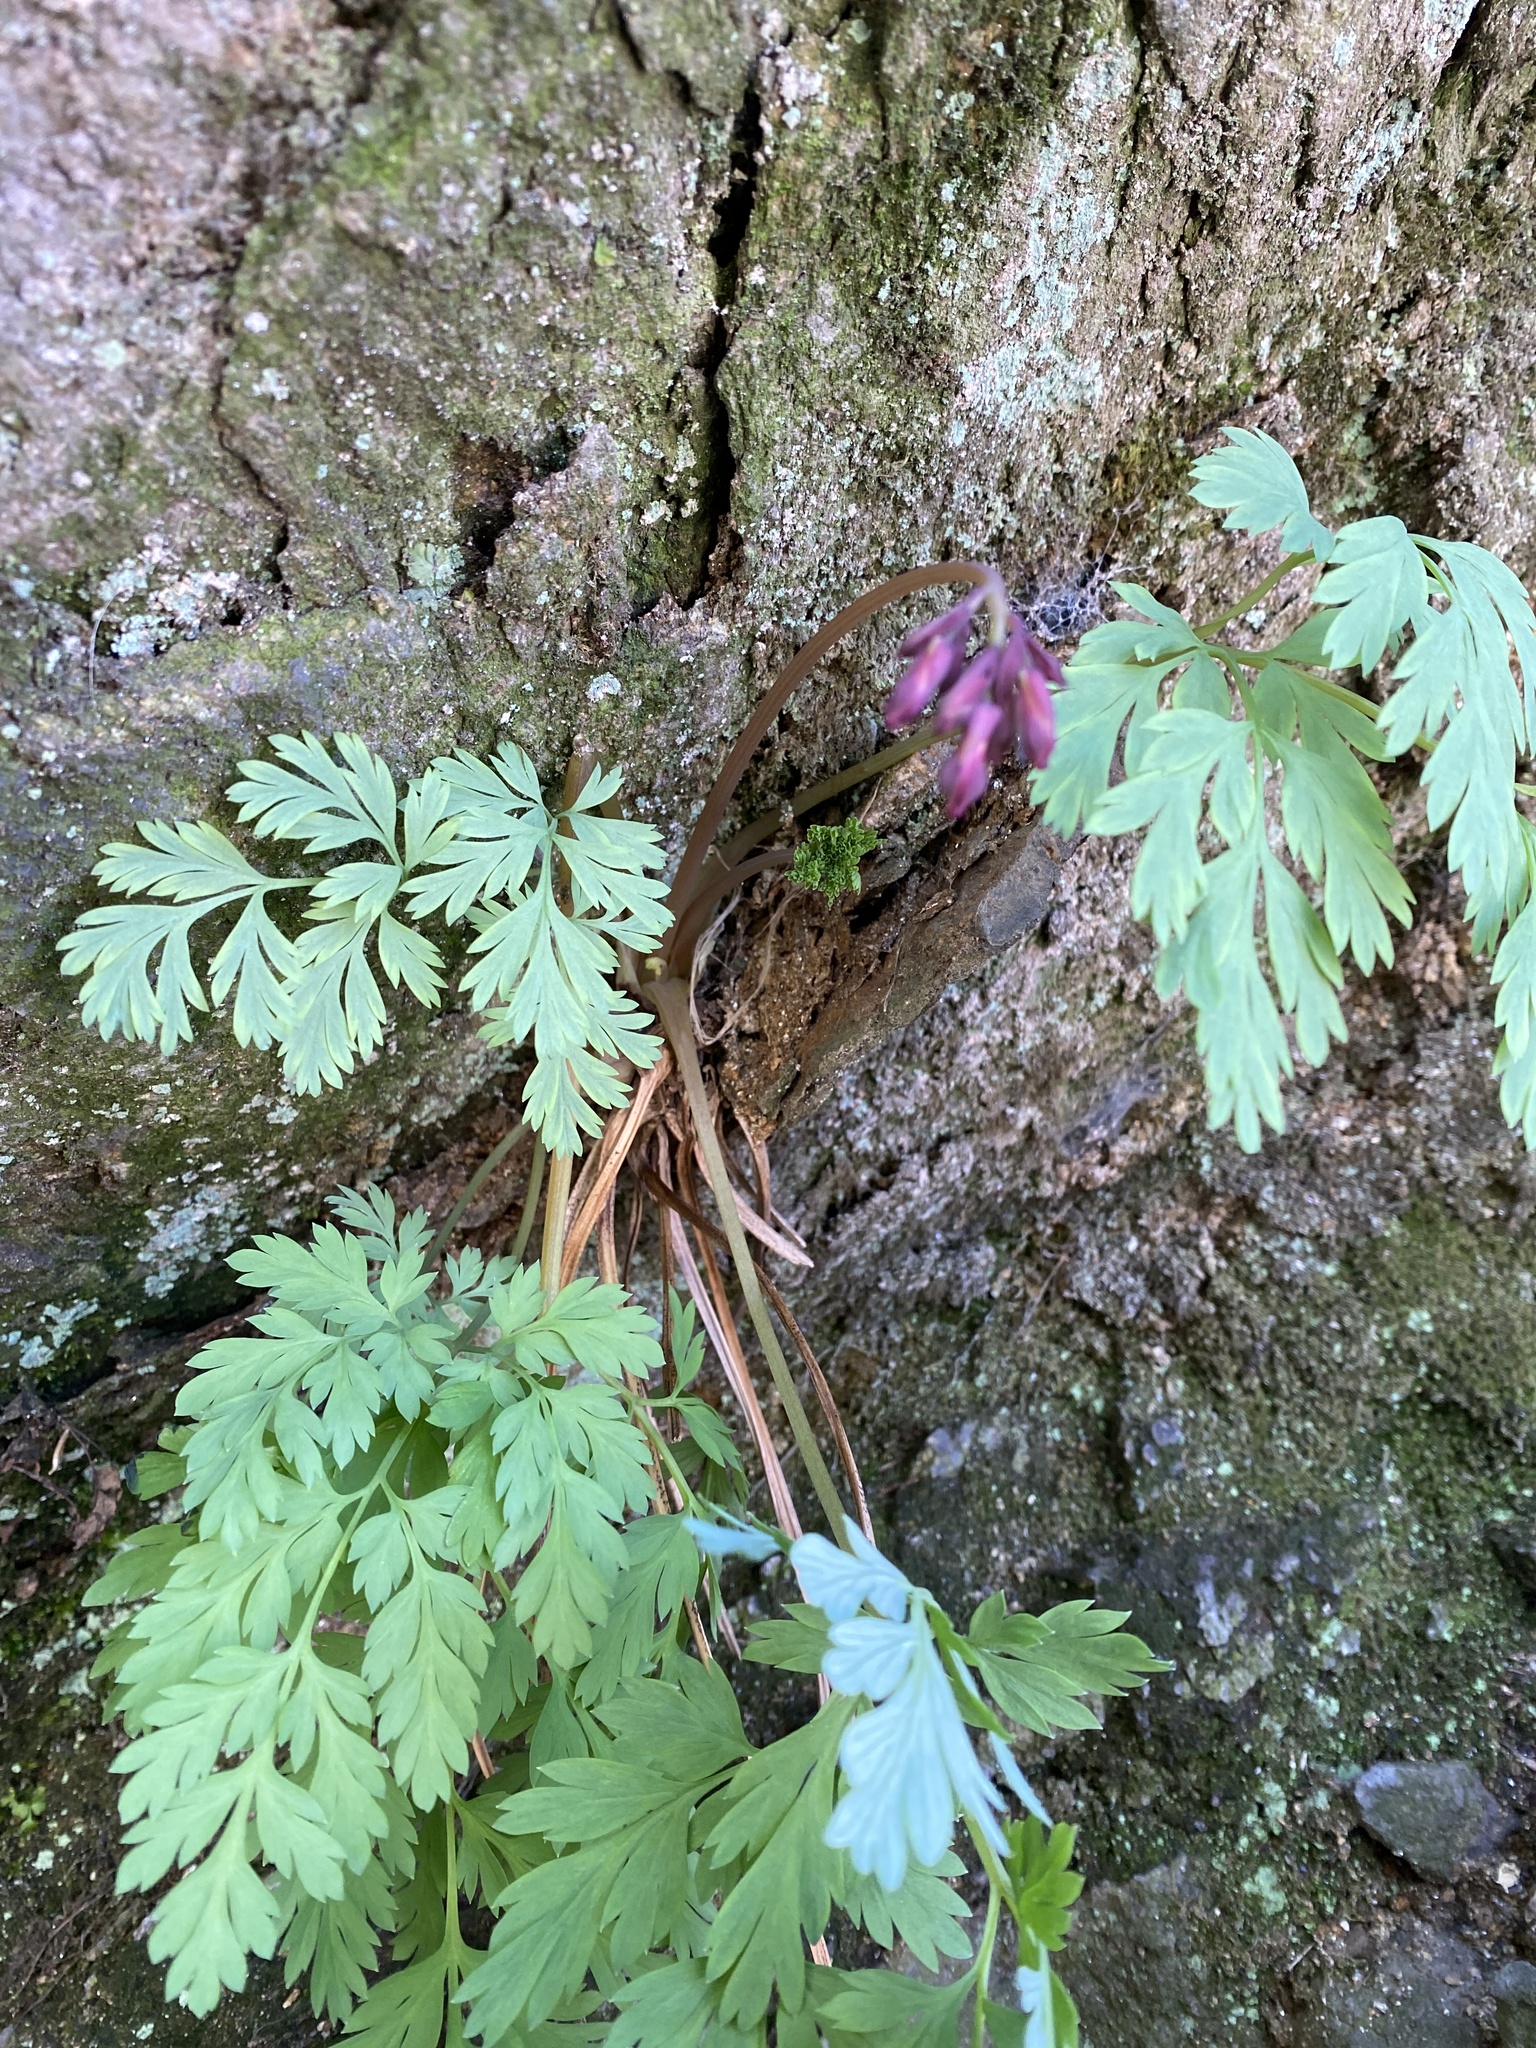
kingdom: Plantae
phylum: Tracheophyta
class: Magnoliopsida
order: Ranunculales
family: Papaveraceae
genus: Dicentra
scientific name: Dicentra eximia
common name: Turkey-corn
